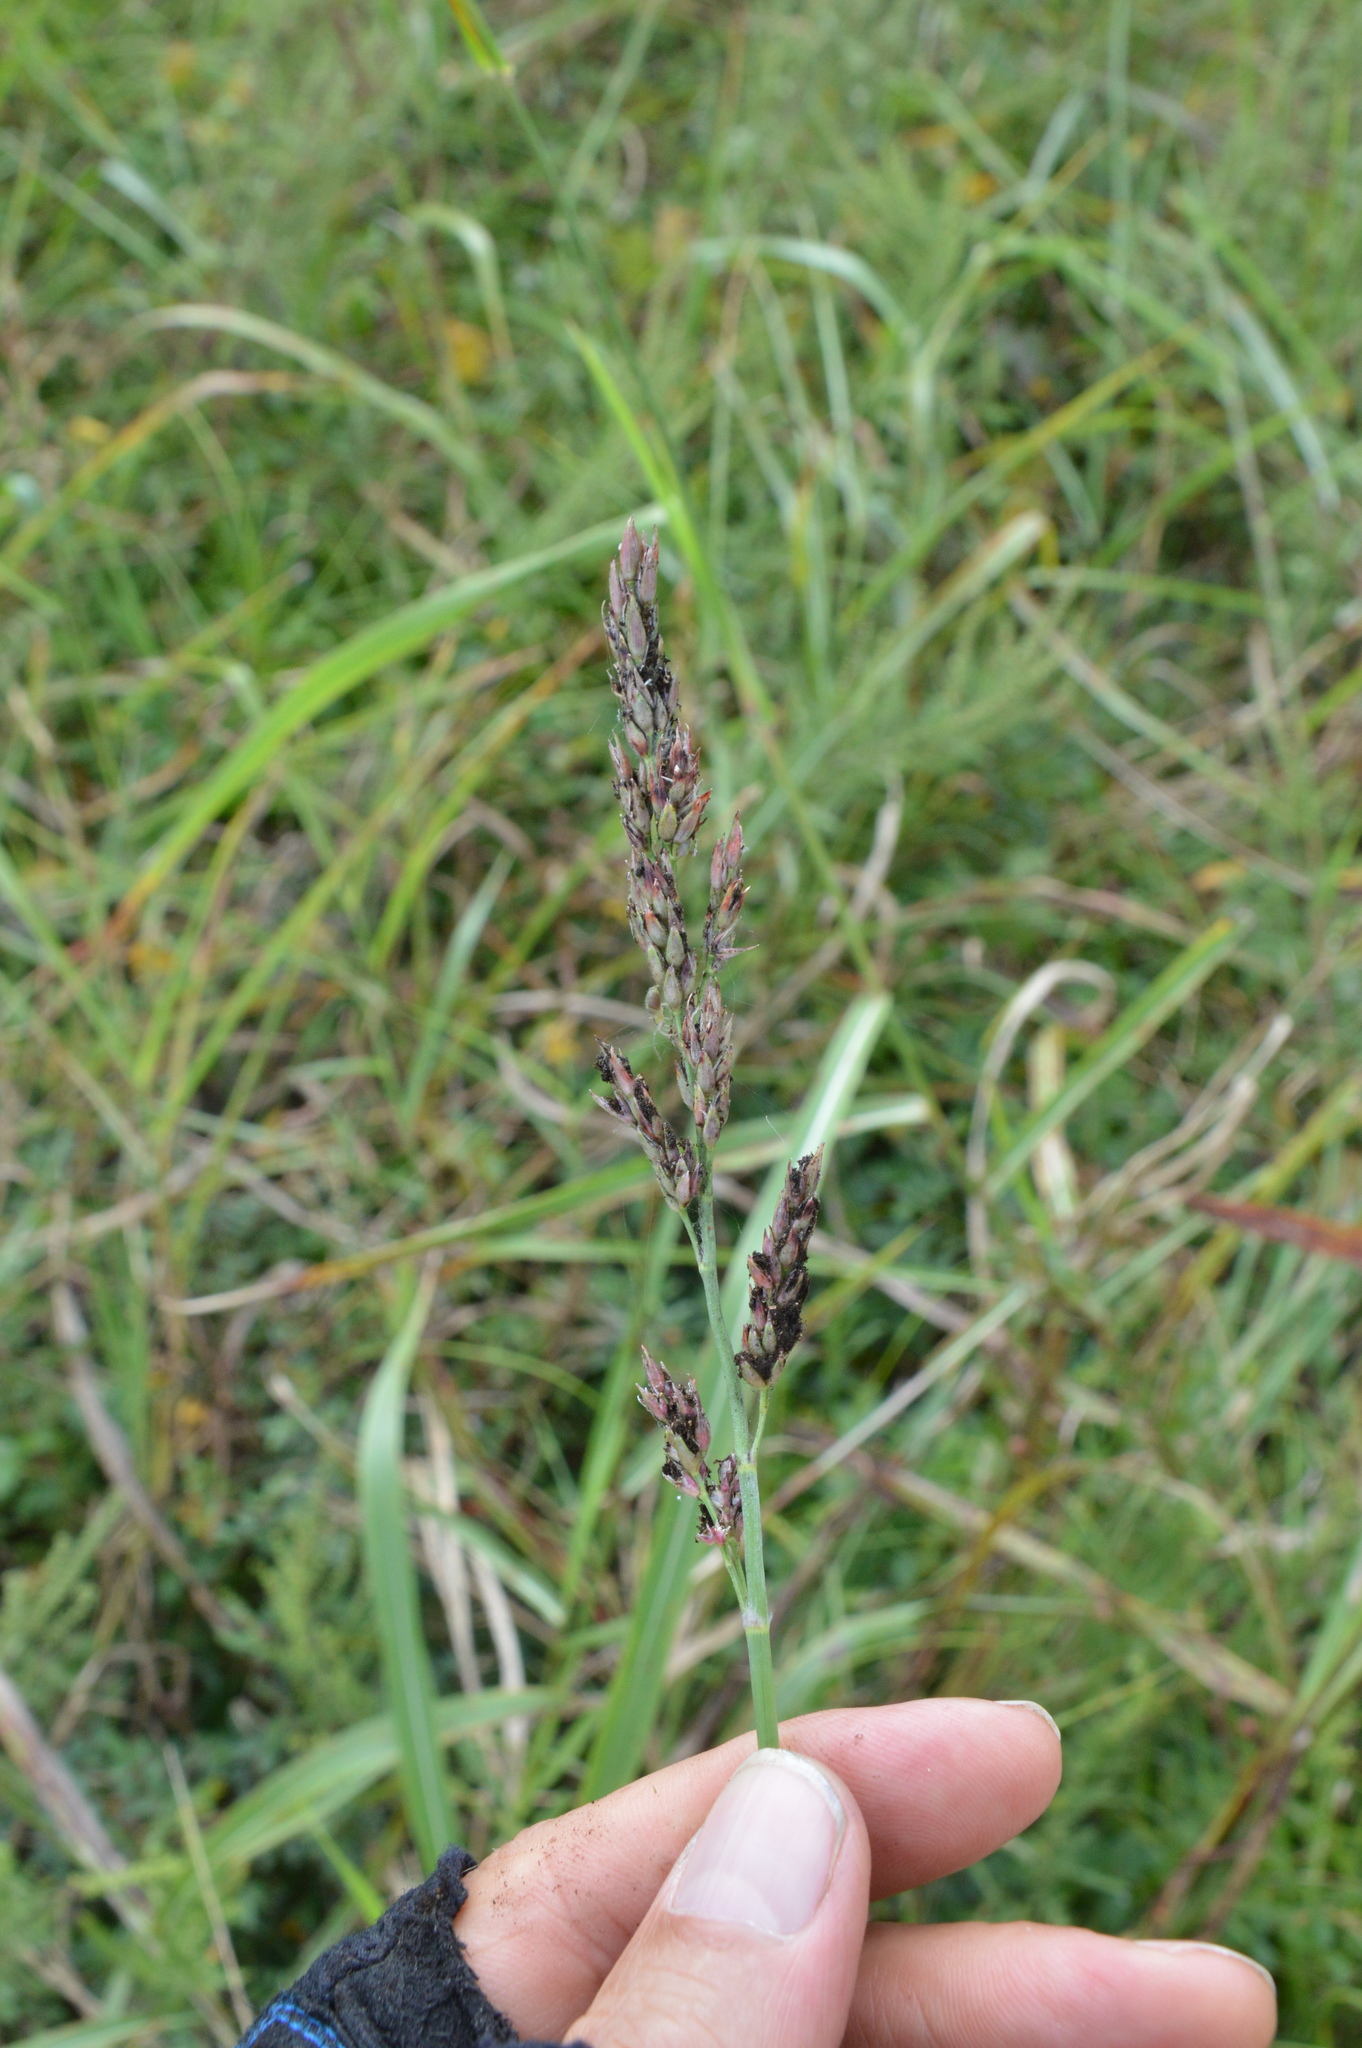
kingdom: Plantae
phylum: Tracheophyta
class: Liliopsida
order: Poales
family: Poaceae
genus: Sorghum
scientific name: Sorghum halepense
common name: Johnson-grass
